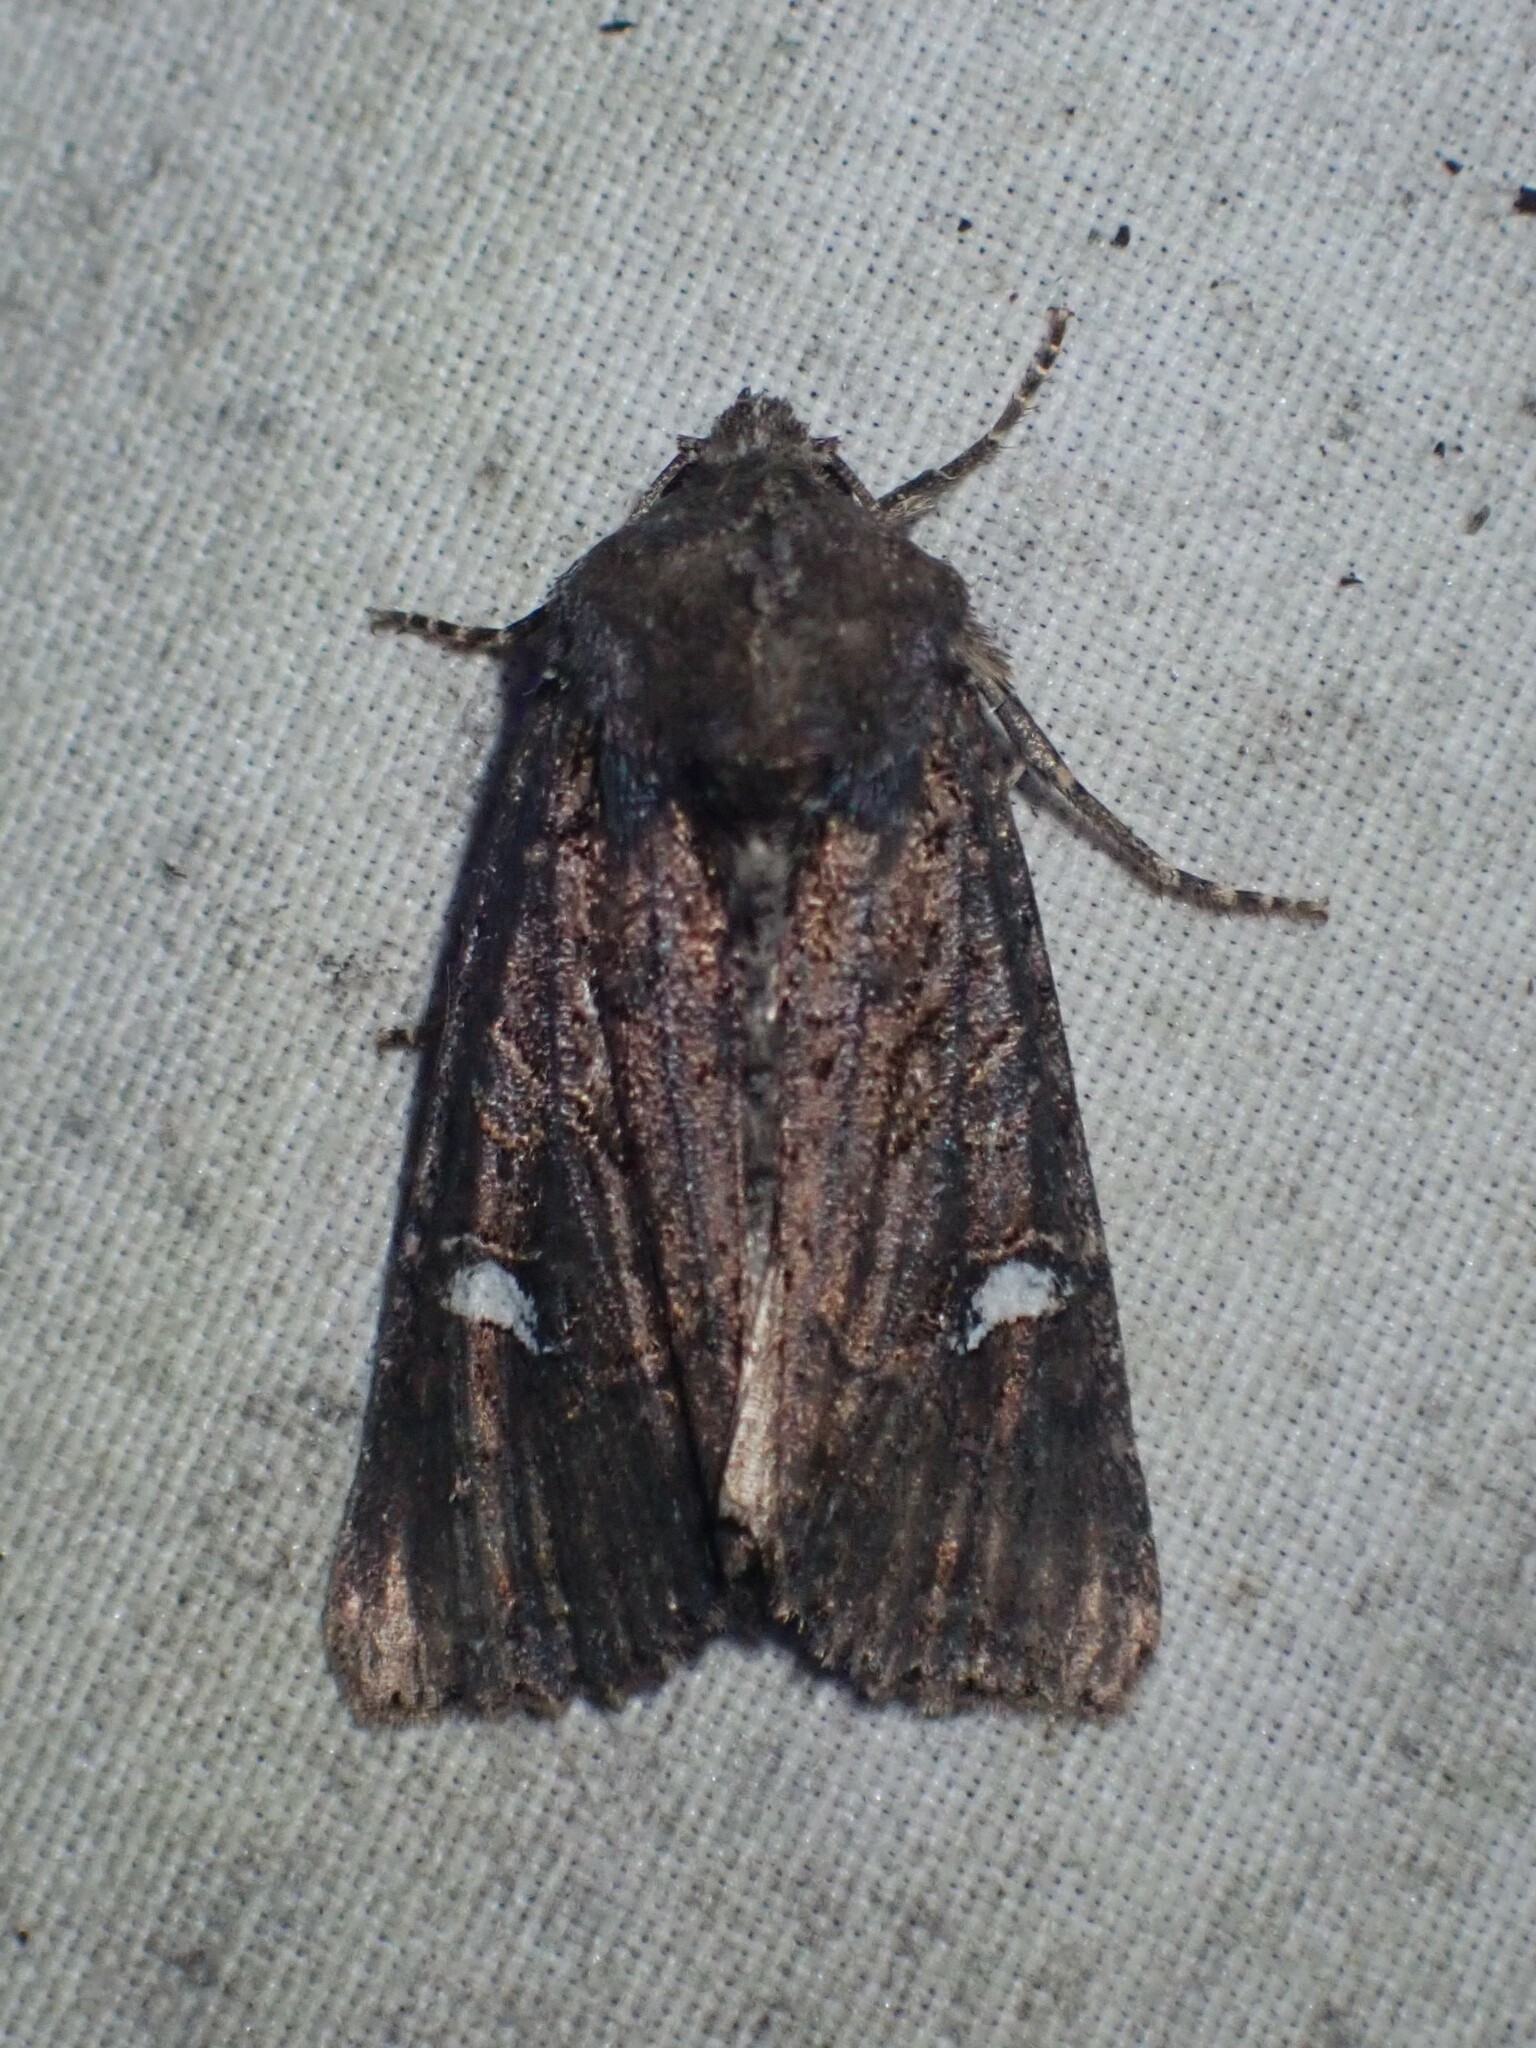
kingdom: Animalia
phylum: Arthropoda
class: Insecta
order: Lepidoptera
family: Noctuidae
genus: Helotropha
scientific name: Helotropha reniformis
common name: Kidney-spotted rustic moth
